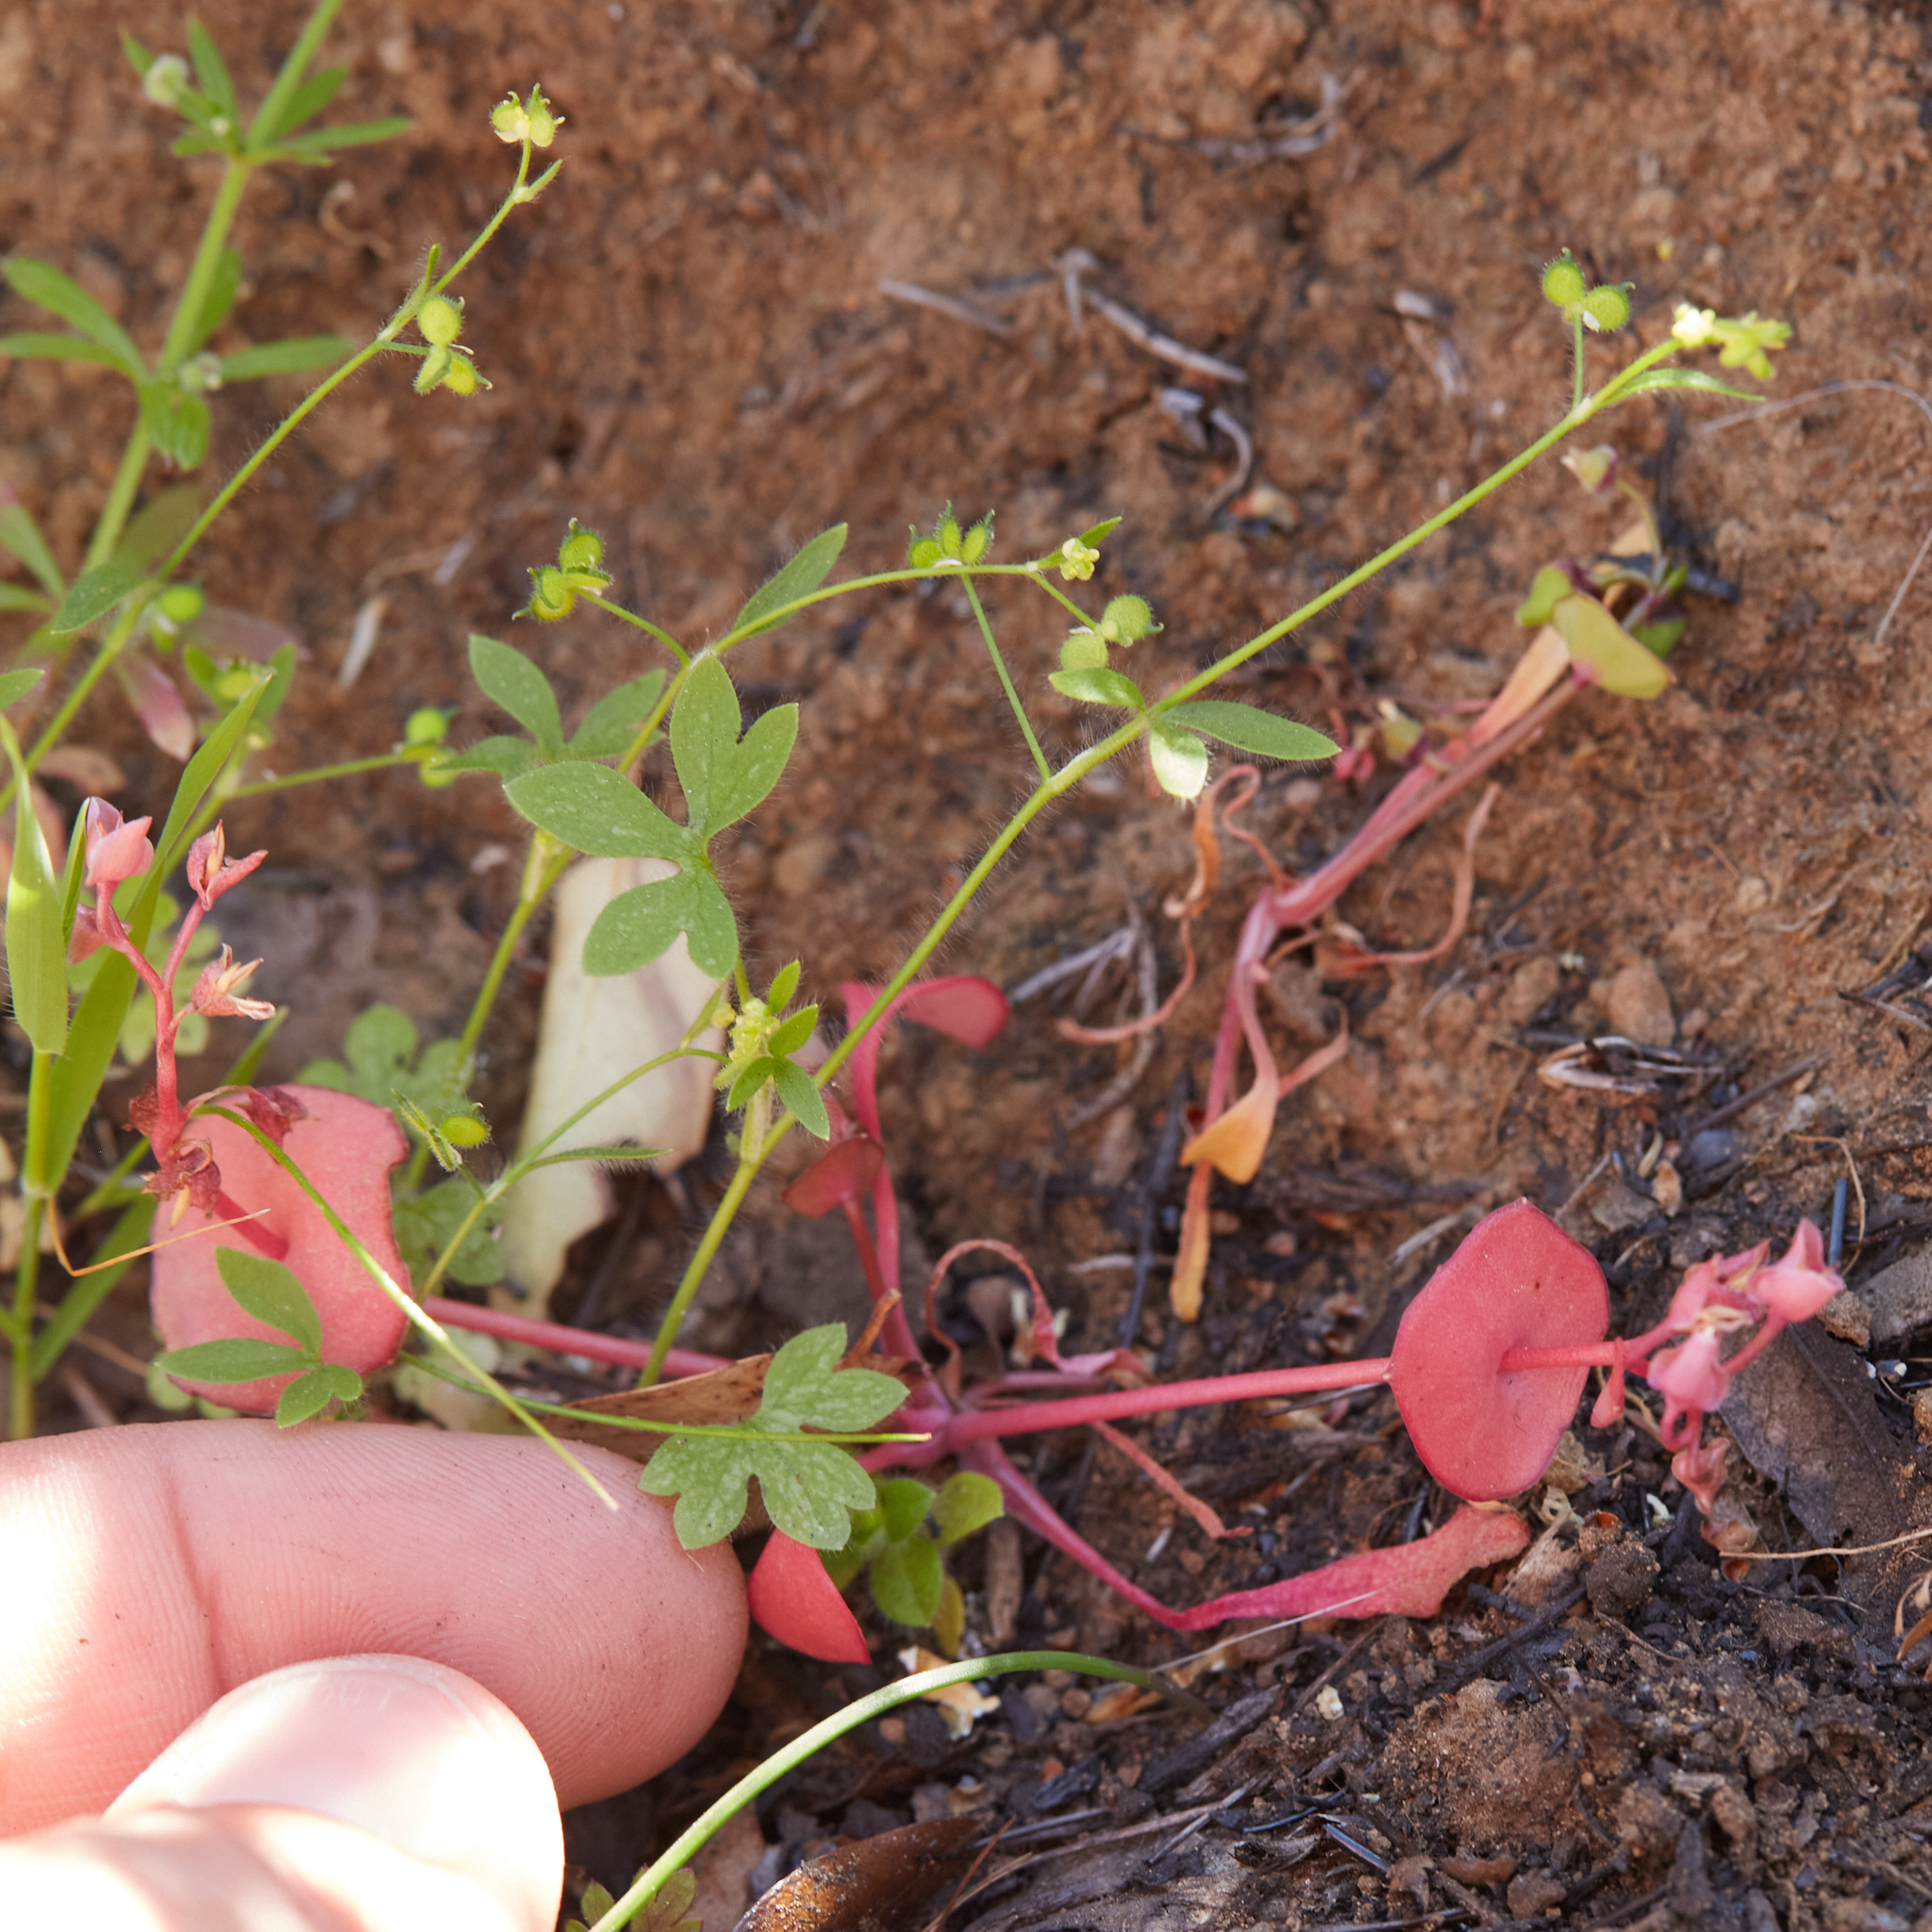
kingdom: Plantae
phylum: Tracheophyta
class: Magnoliopsida
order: Ranunculales
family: Ranunculaceae
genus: Ranunculus
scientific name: Ranunculus hebecarpus
